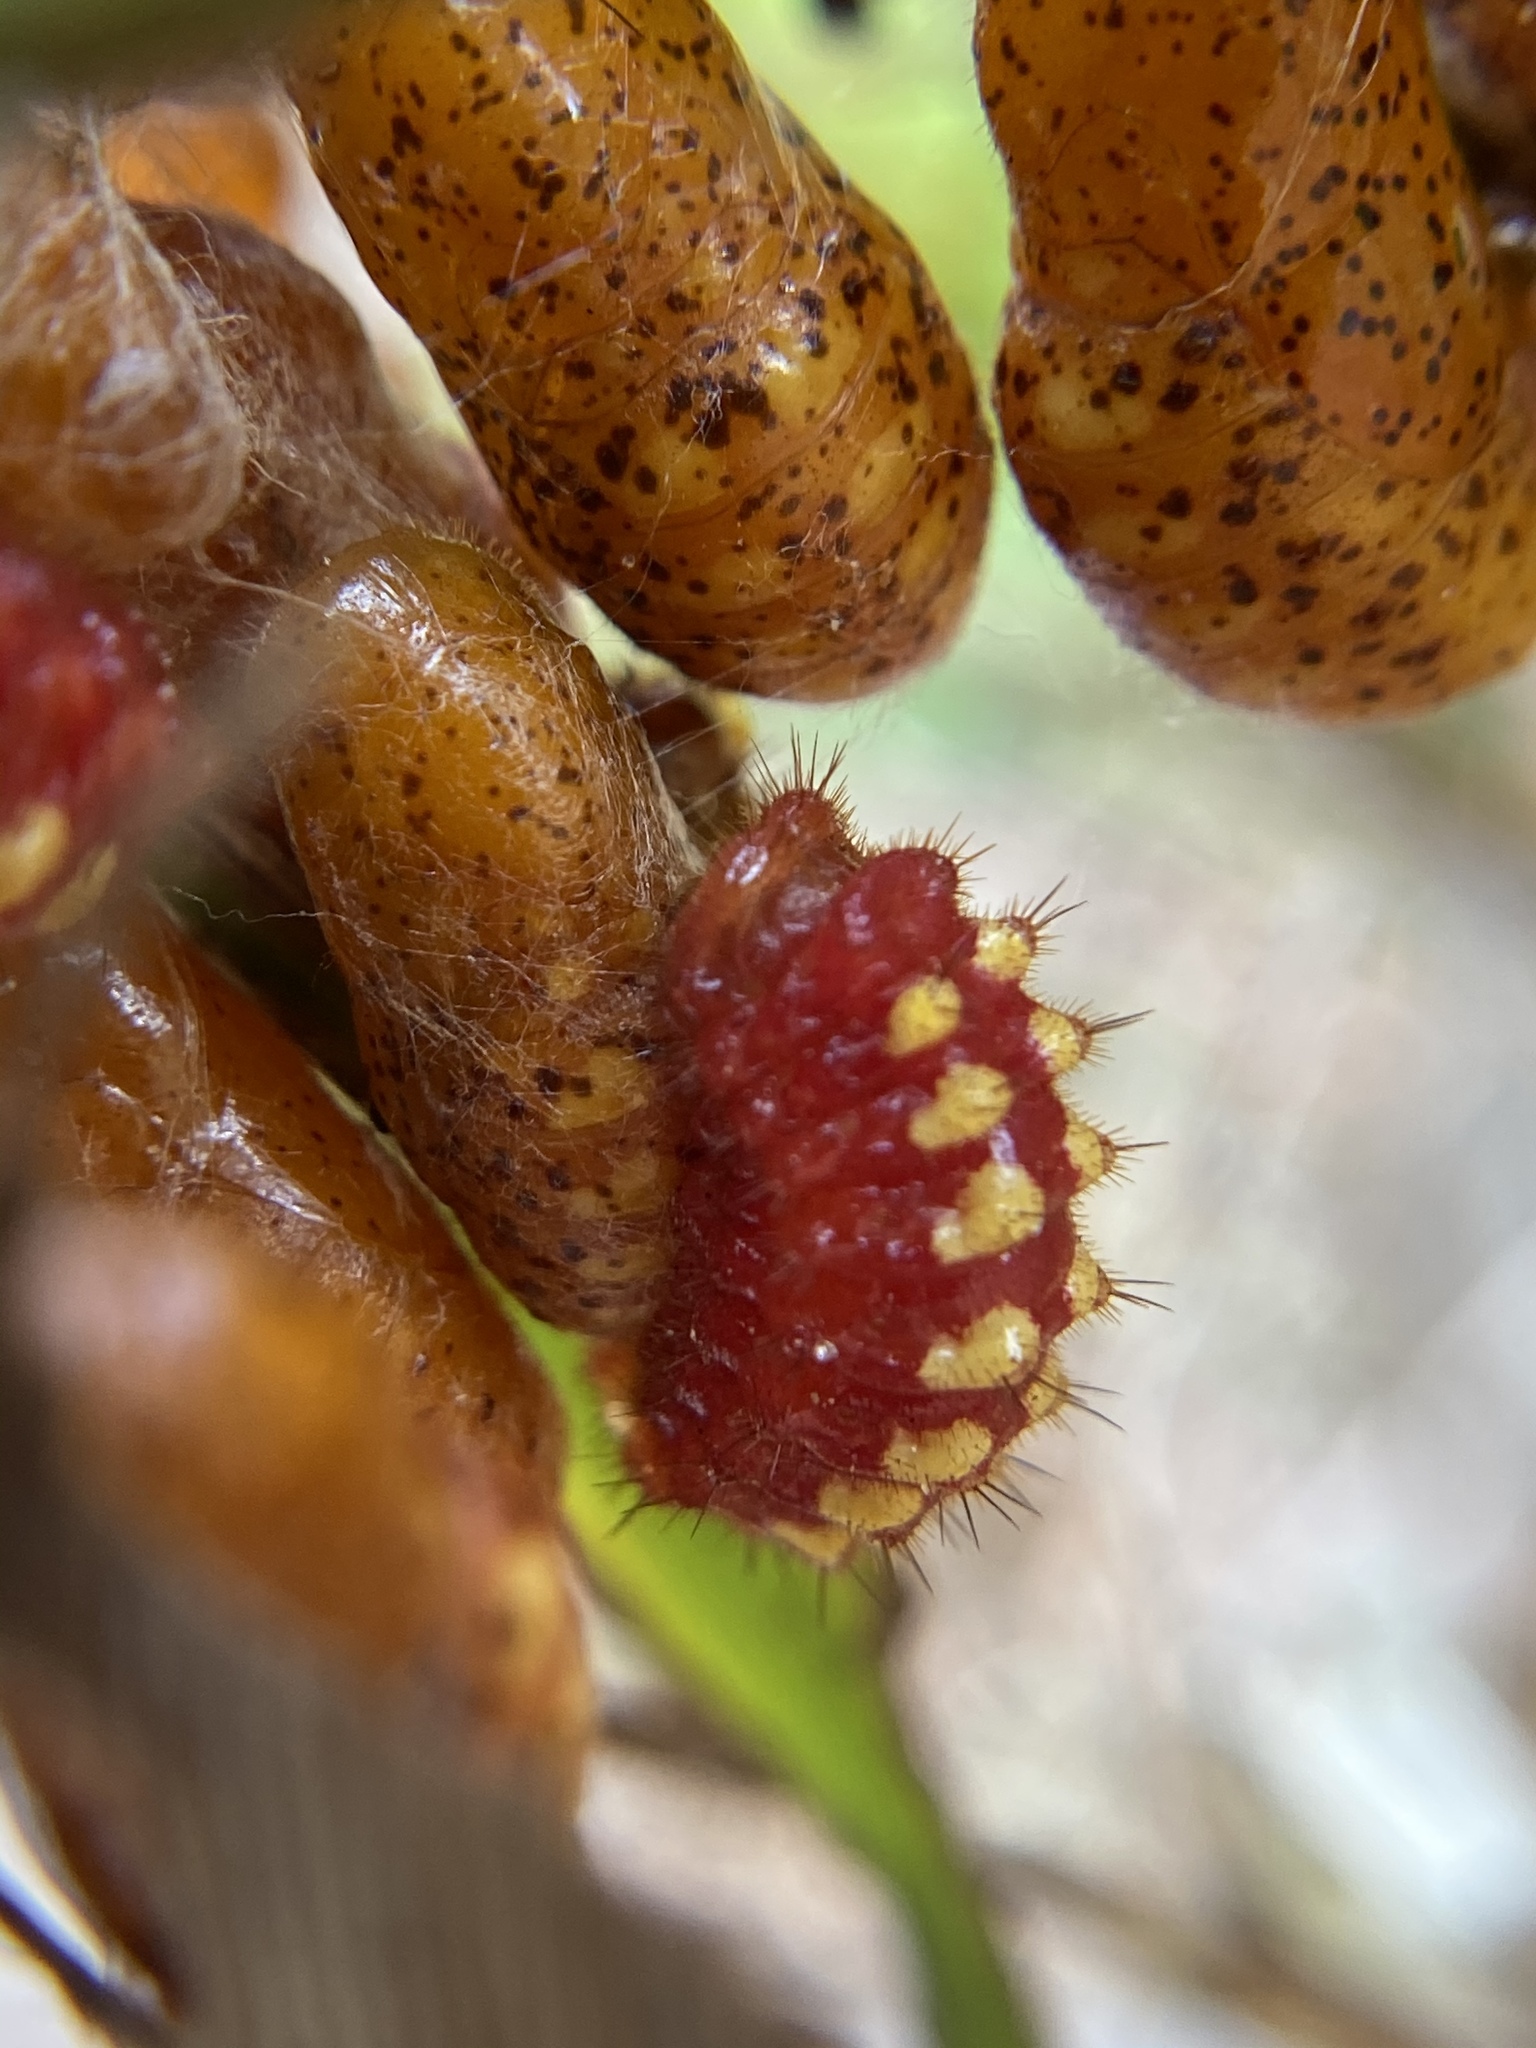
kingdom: Animalia
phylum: Arthropoda
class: Insecta
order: Lepidoptera
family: Lycaenidae
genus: Eumaeus
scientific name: Eumaeus atala
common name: Atala
